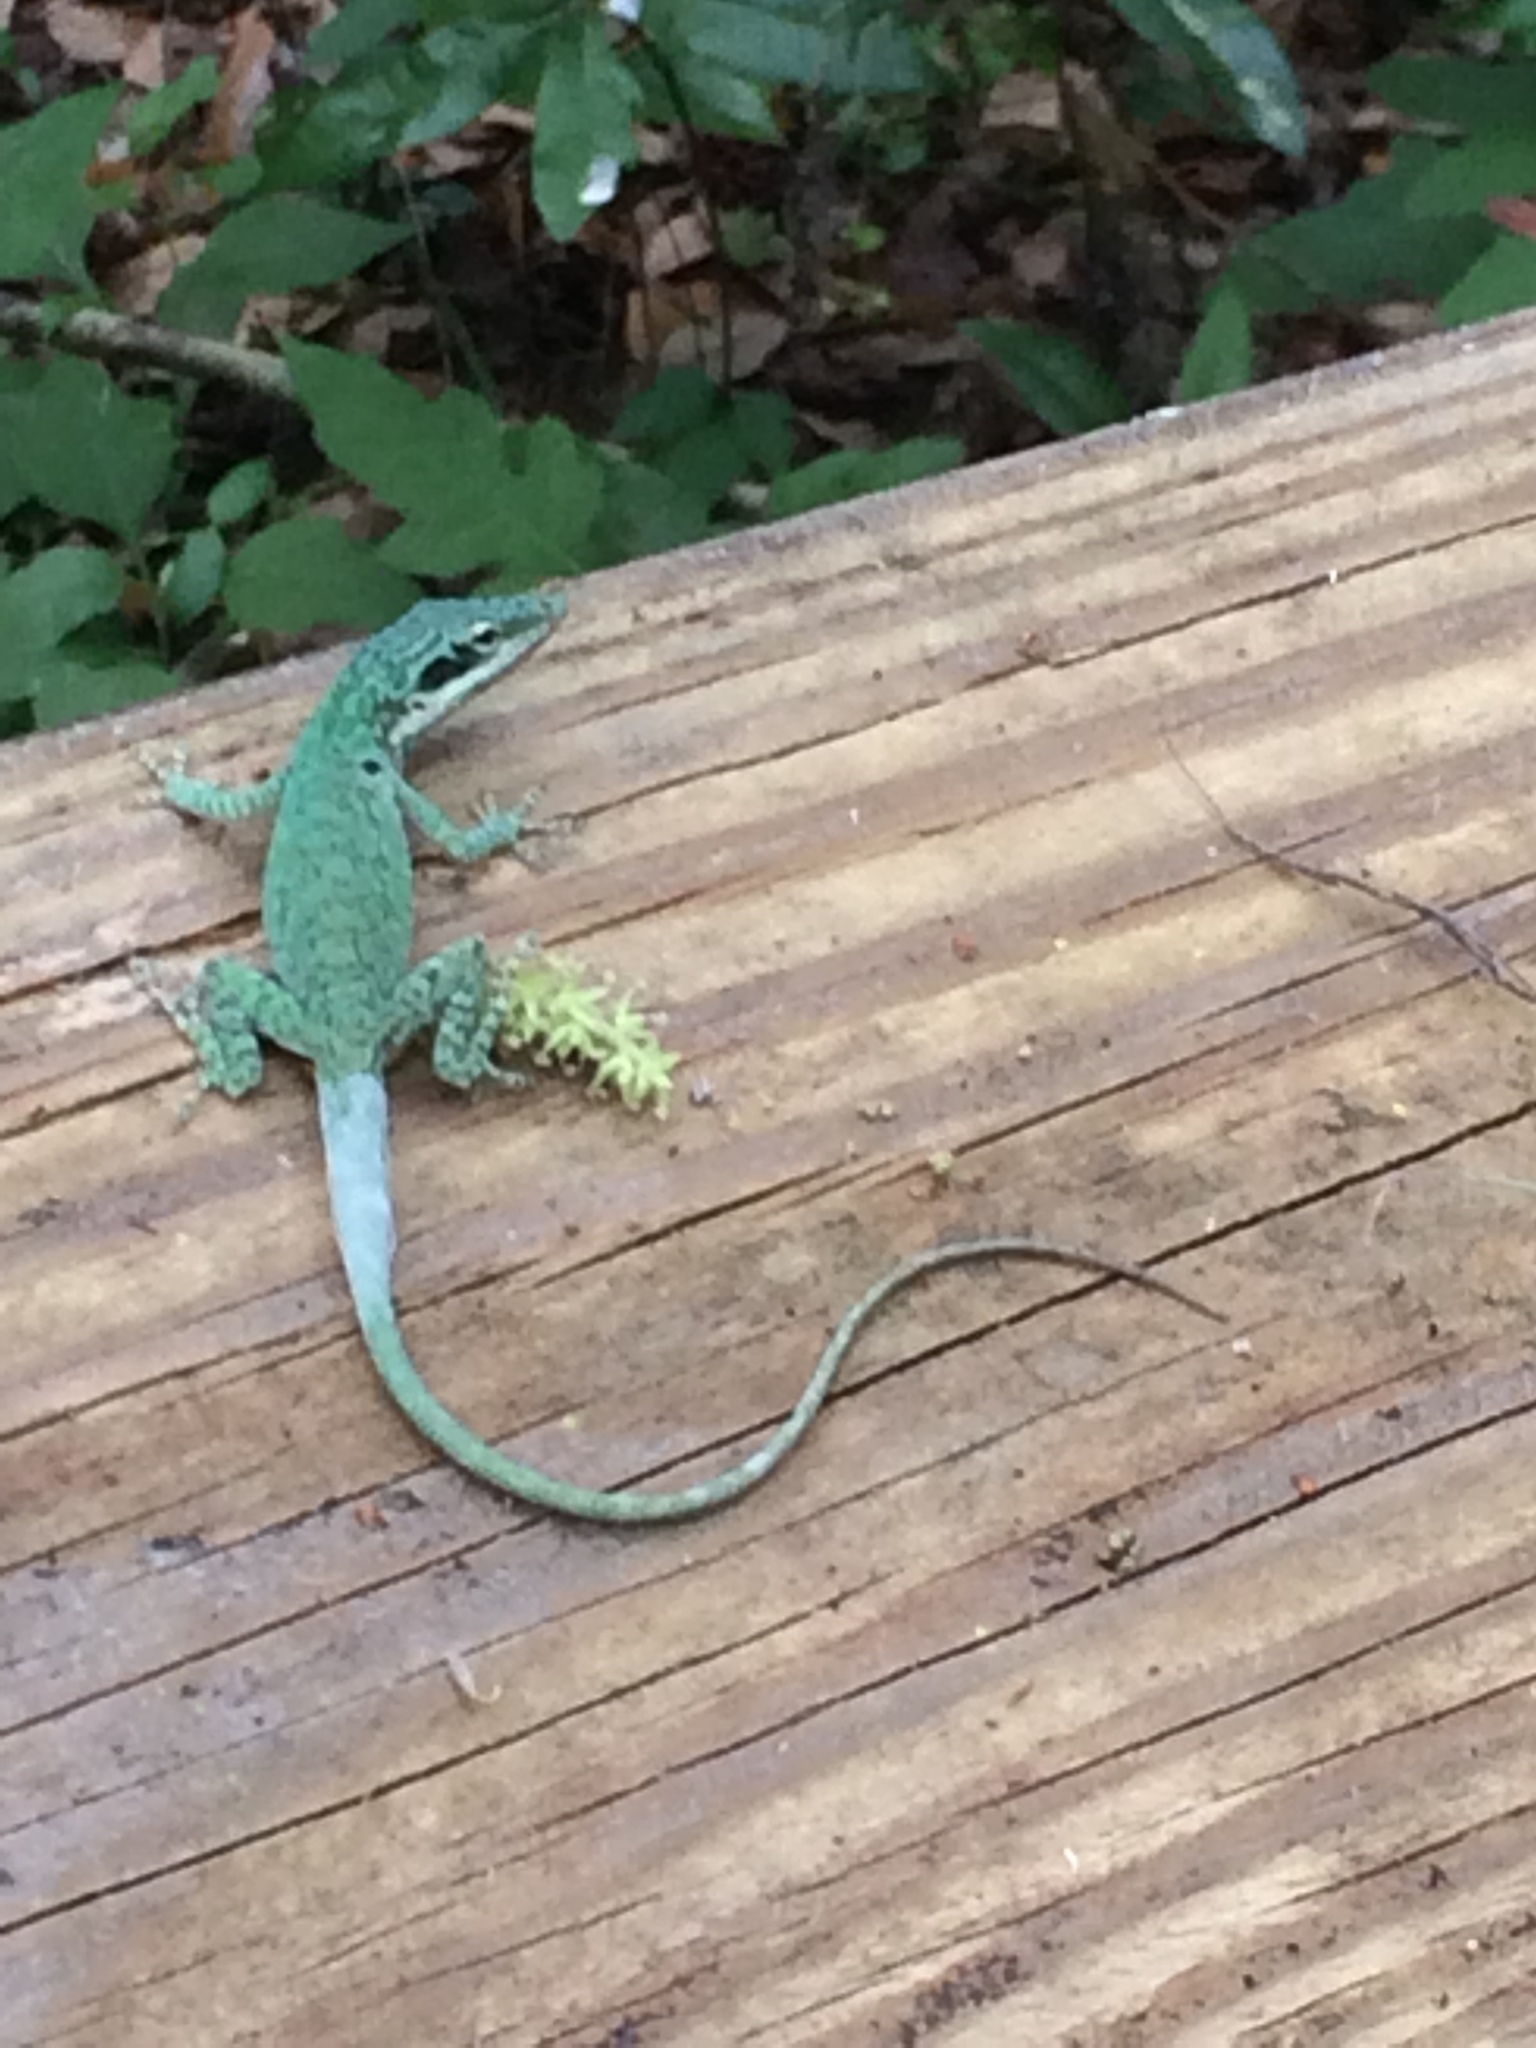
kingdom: Animalia
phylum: Chordata
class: Squamata
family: Dactyloidae
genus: Anolis
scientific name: Anolis carolinensis
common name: Green anole
